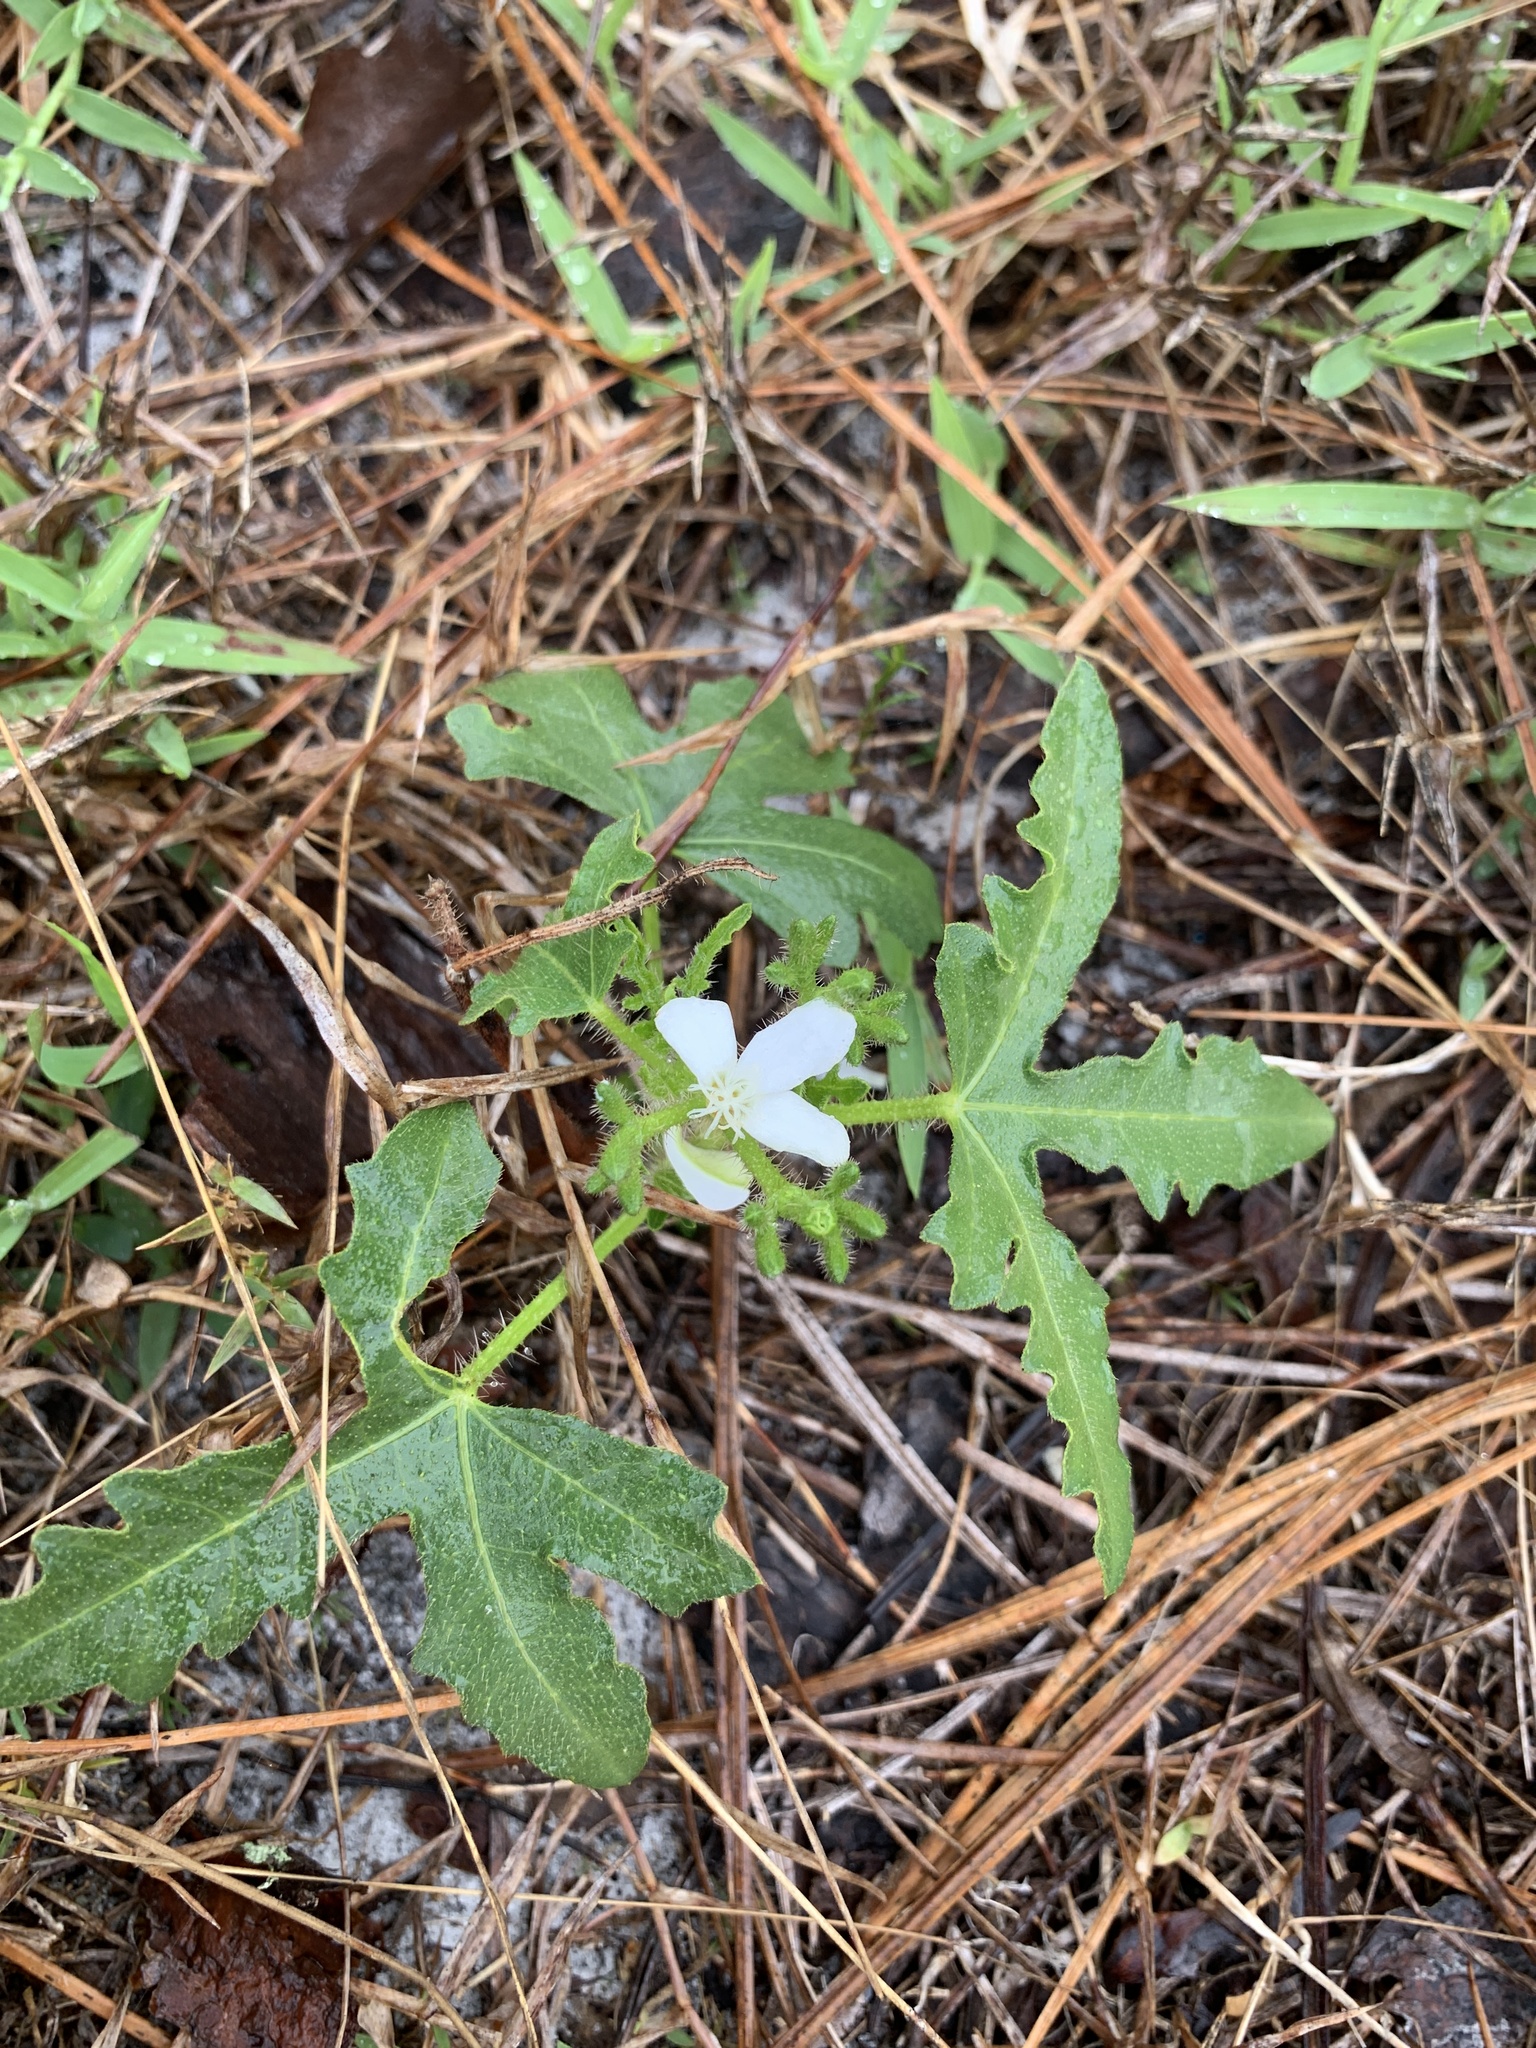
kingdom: Plantae
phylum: Tracheophyta
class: Magnoliopsida
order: Malpighiales
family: Euphorbiaceae
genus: Cnidoscolus
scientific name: Cnidoscolus stimulosus
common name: Bull-nettle
